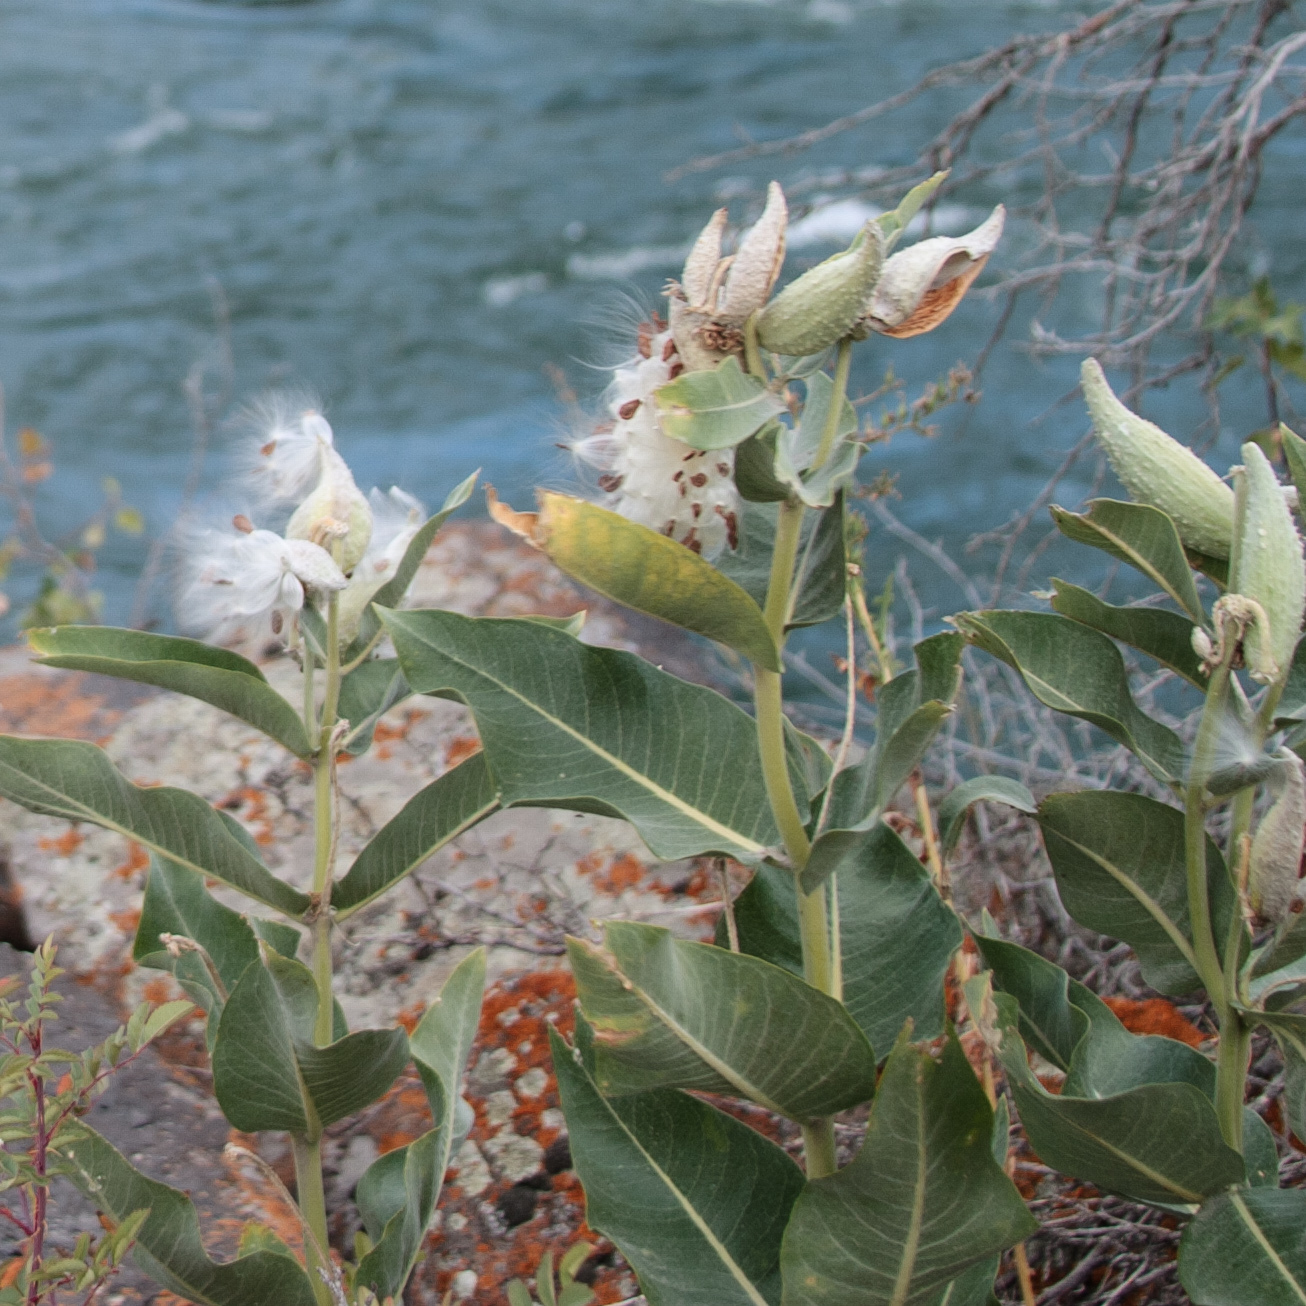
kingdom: Plantae
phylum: Tracheophyta
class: Magnoliopsida
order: Gentianales
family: Apocynaceae
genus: Asclepias
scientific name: Asclepias speciosa
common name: Showy milkweed
